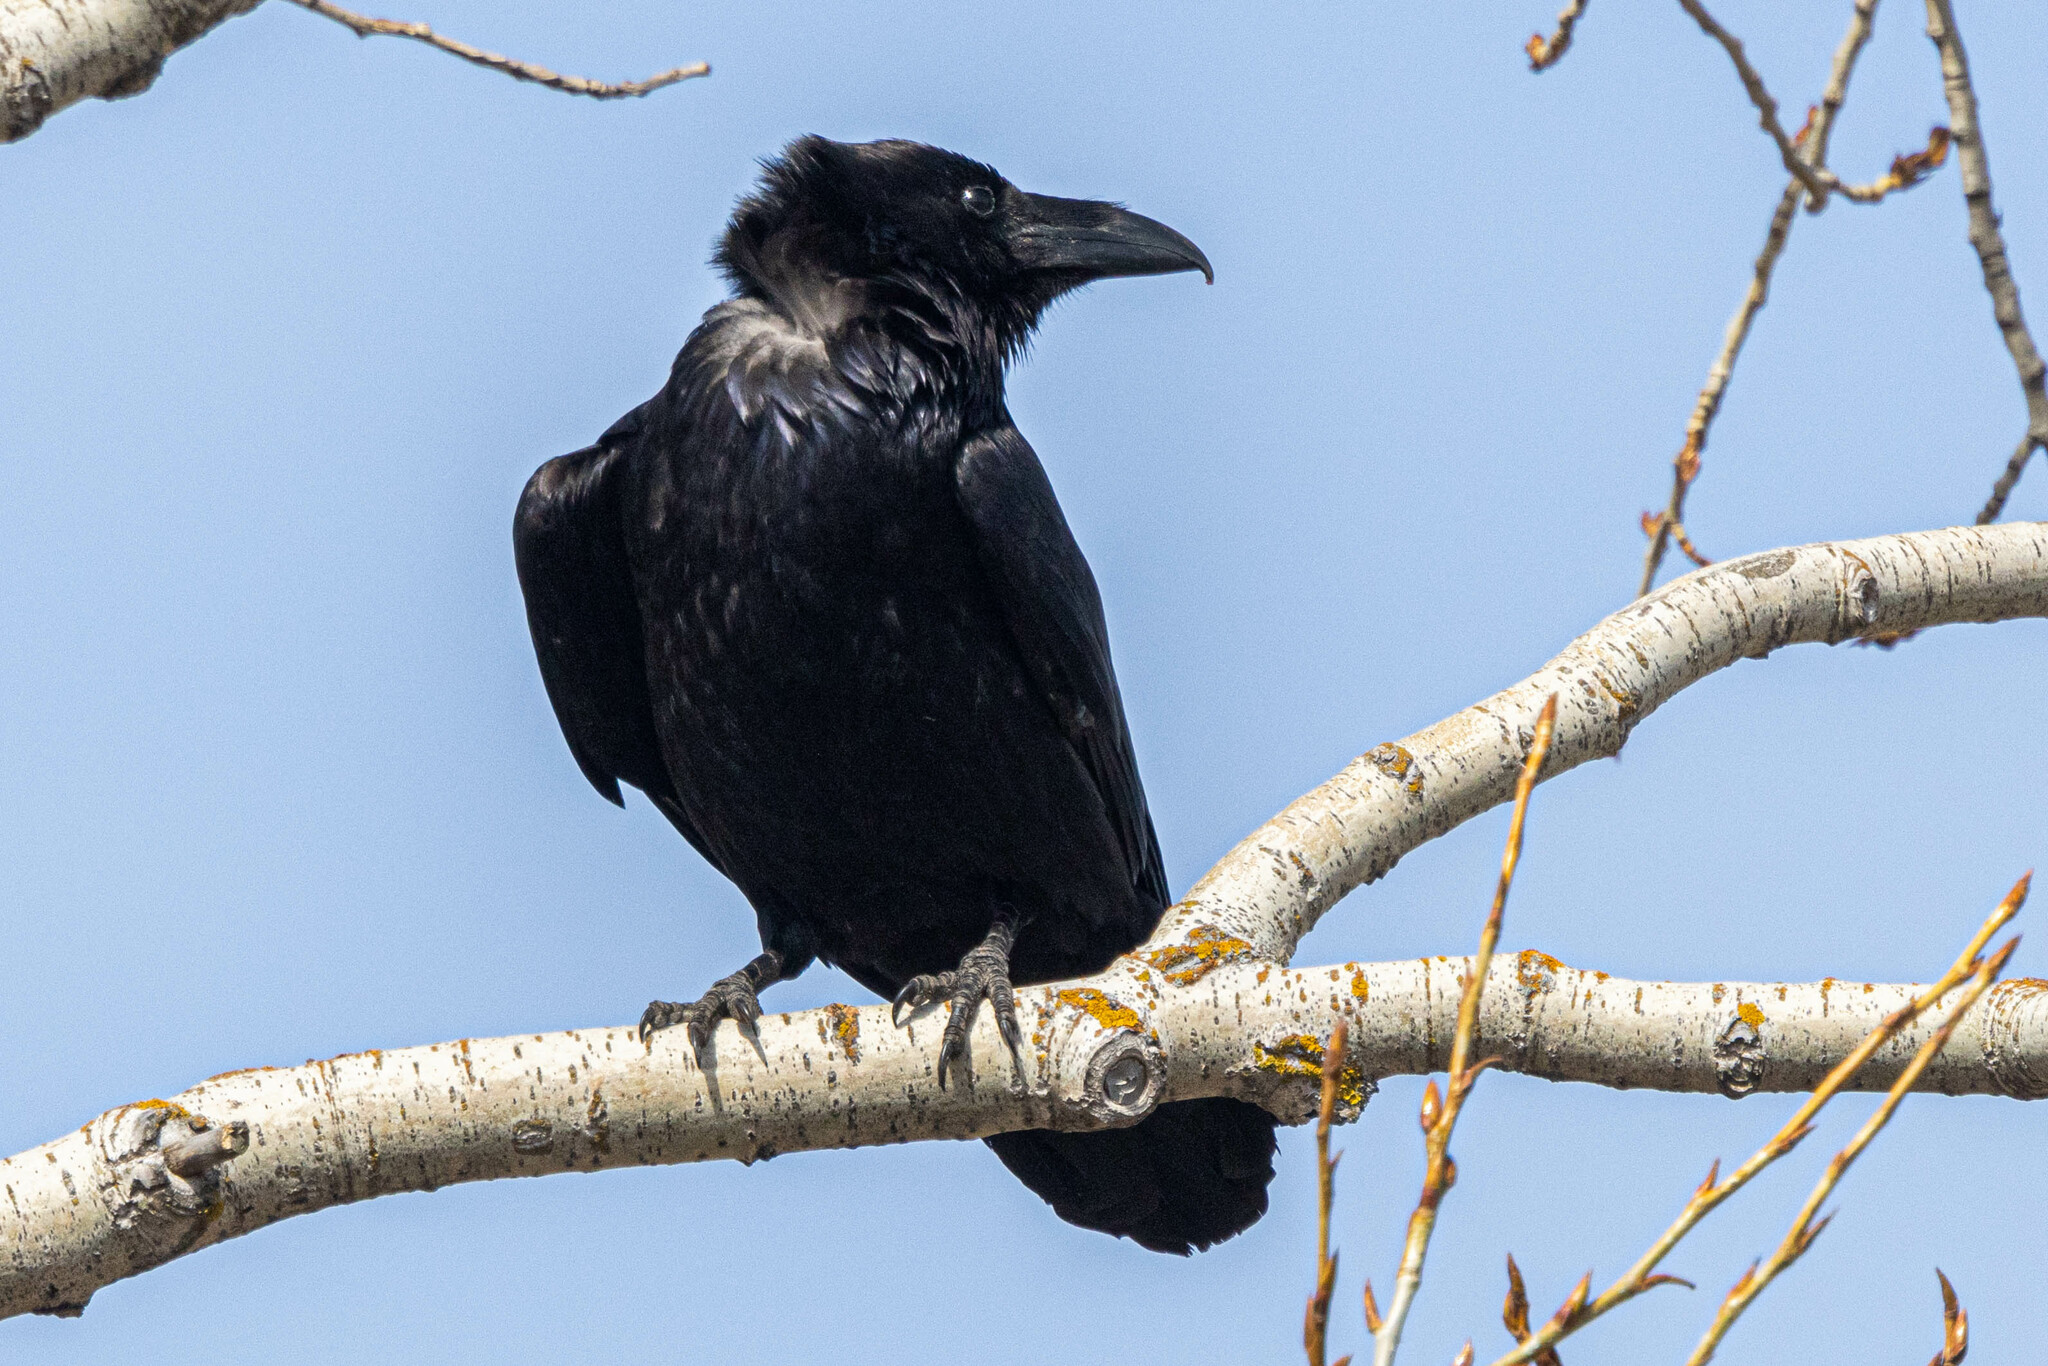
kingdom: Animalia
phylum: Chordata
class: Aves
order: Passeriformes
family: Corvidae
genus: Corvus
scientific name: Corvus corax
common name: Common raven
